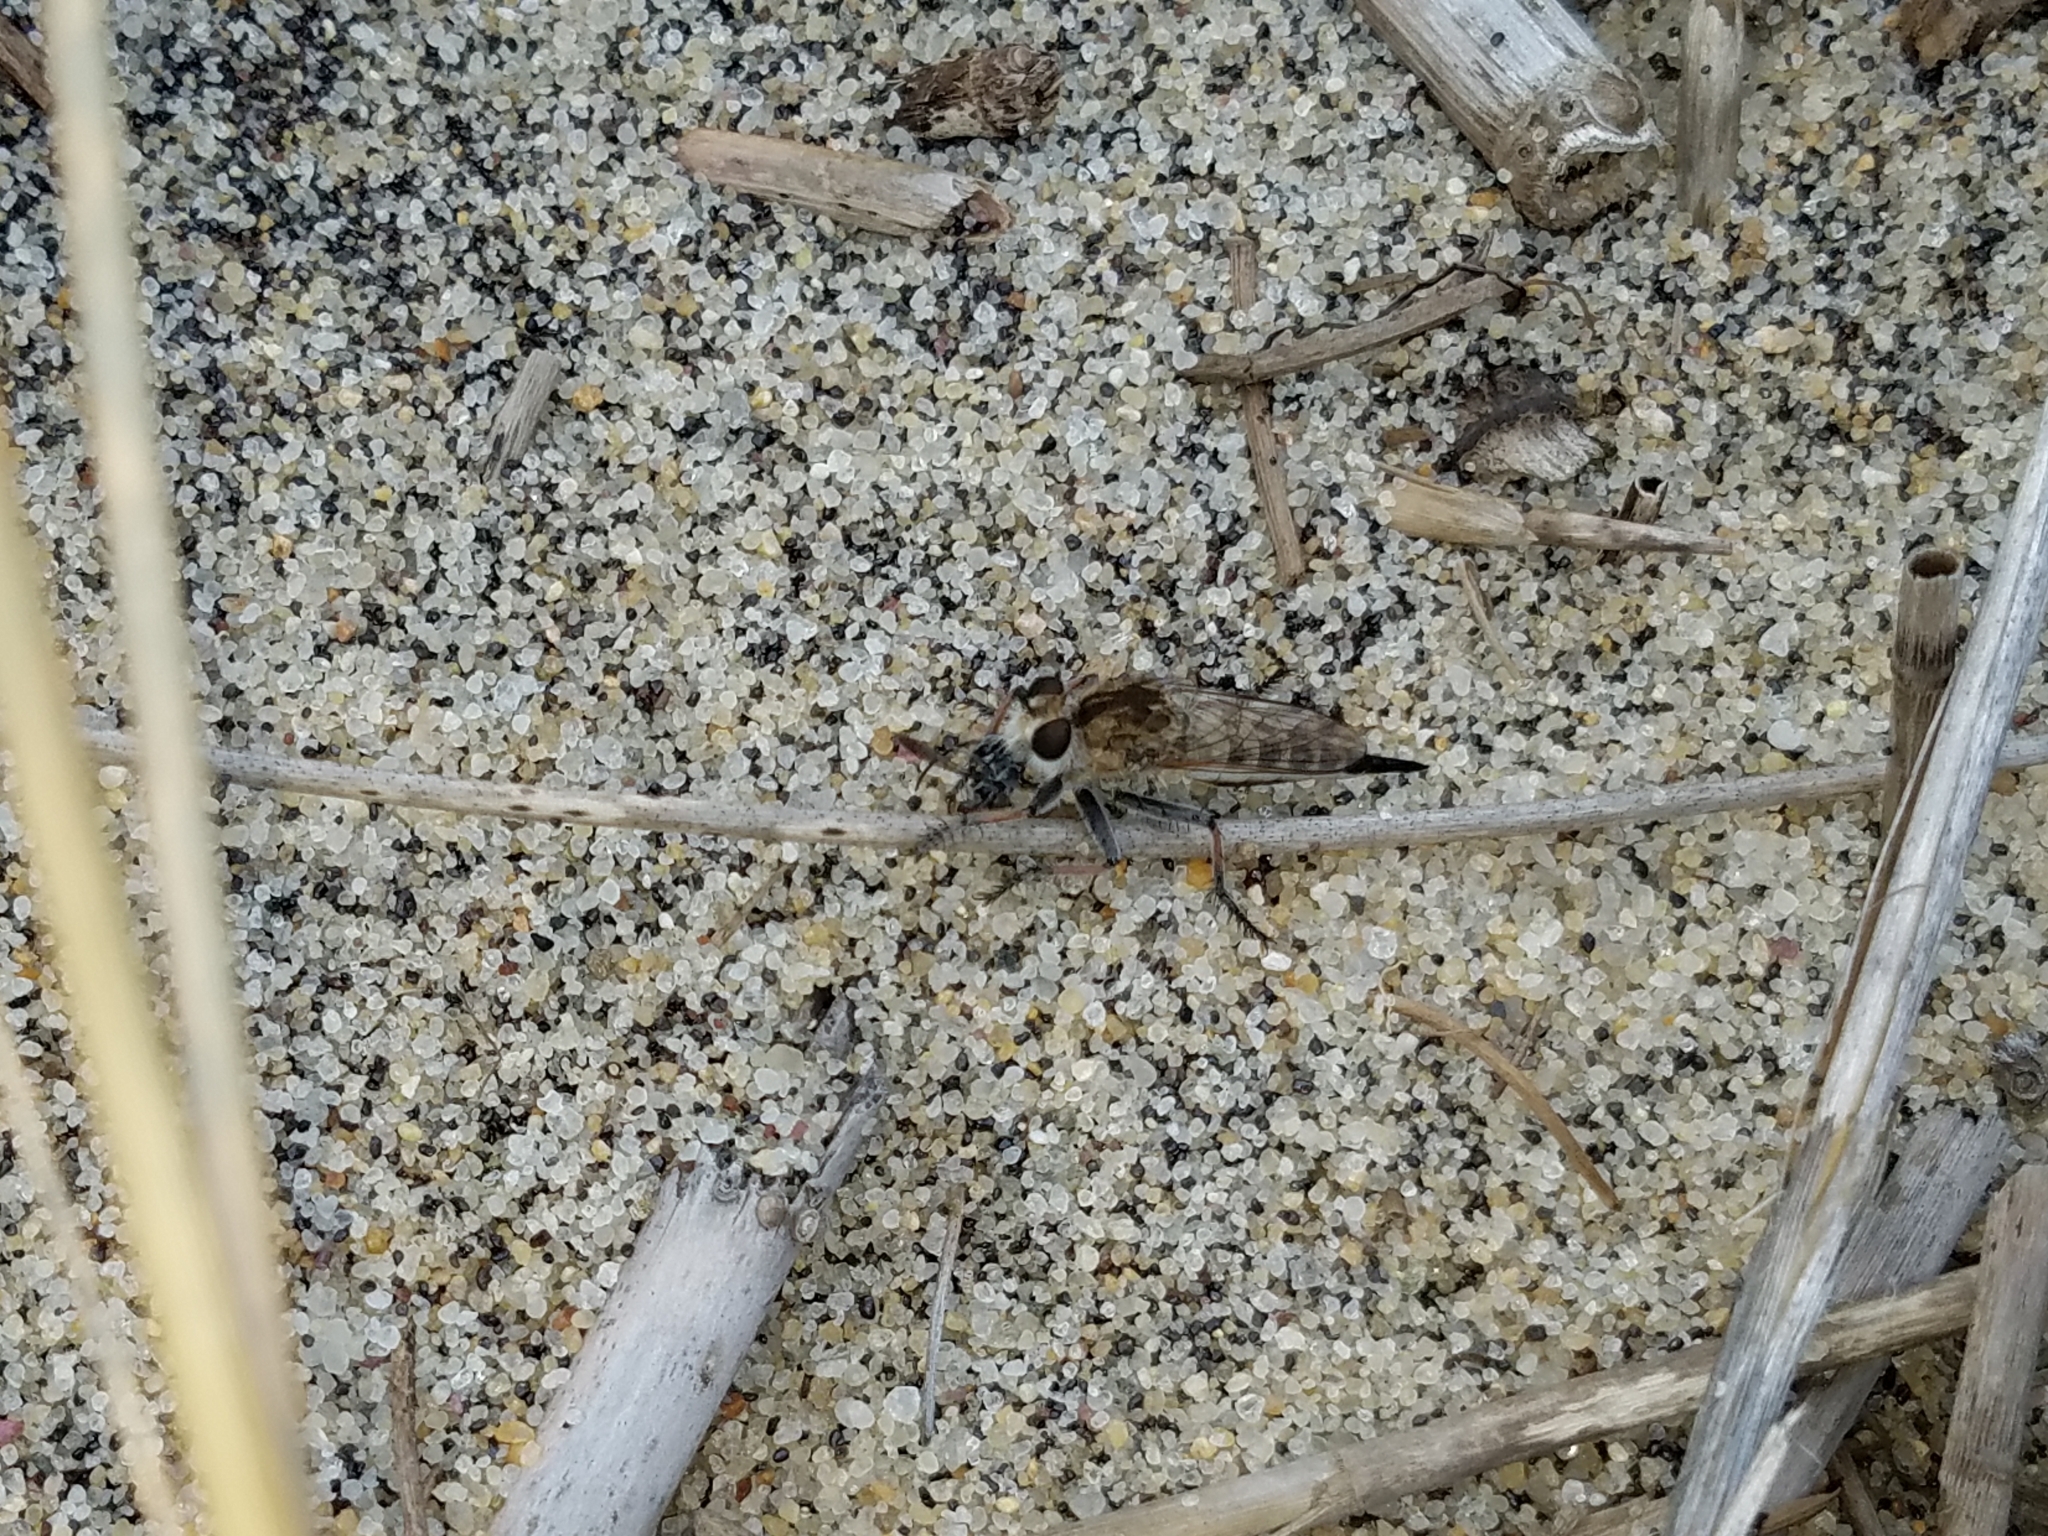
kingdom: Animalia
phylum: Arthropoda
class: Insecta
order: Diptera
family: Asilidae
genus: Efferia
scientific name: Efferia albibarbis
